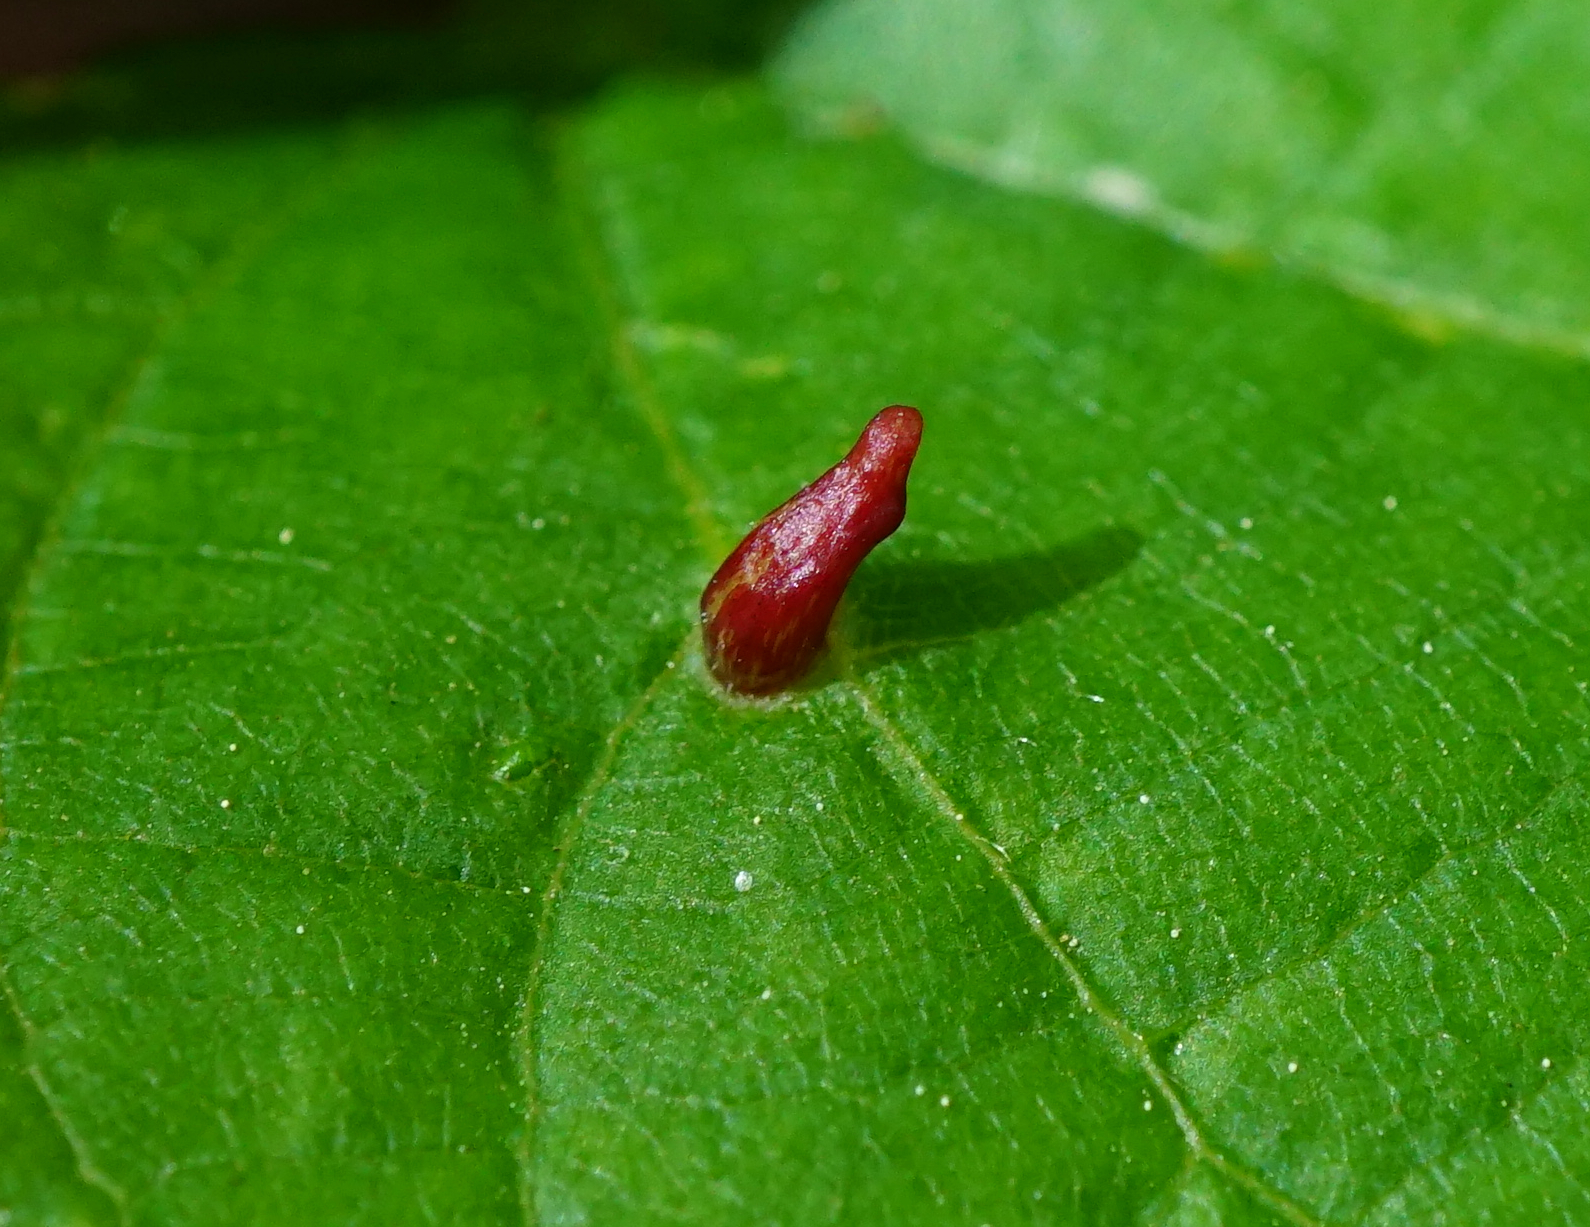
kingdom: Animalia
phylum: Arthropoda
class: Arachnida
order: Trombidiformes
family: Eriophyidae
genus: Eriophyes
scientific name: Eriophyes tiliae
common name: Red nail gall mite
